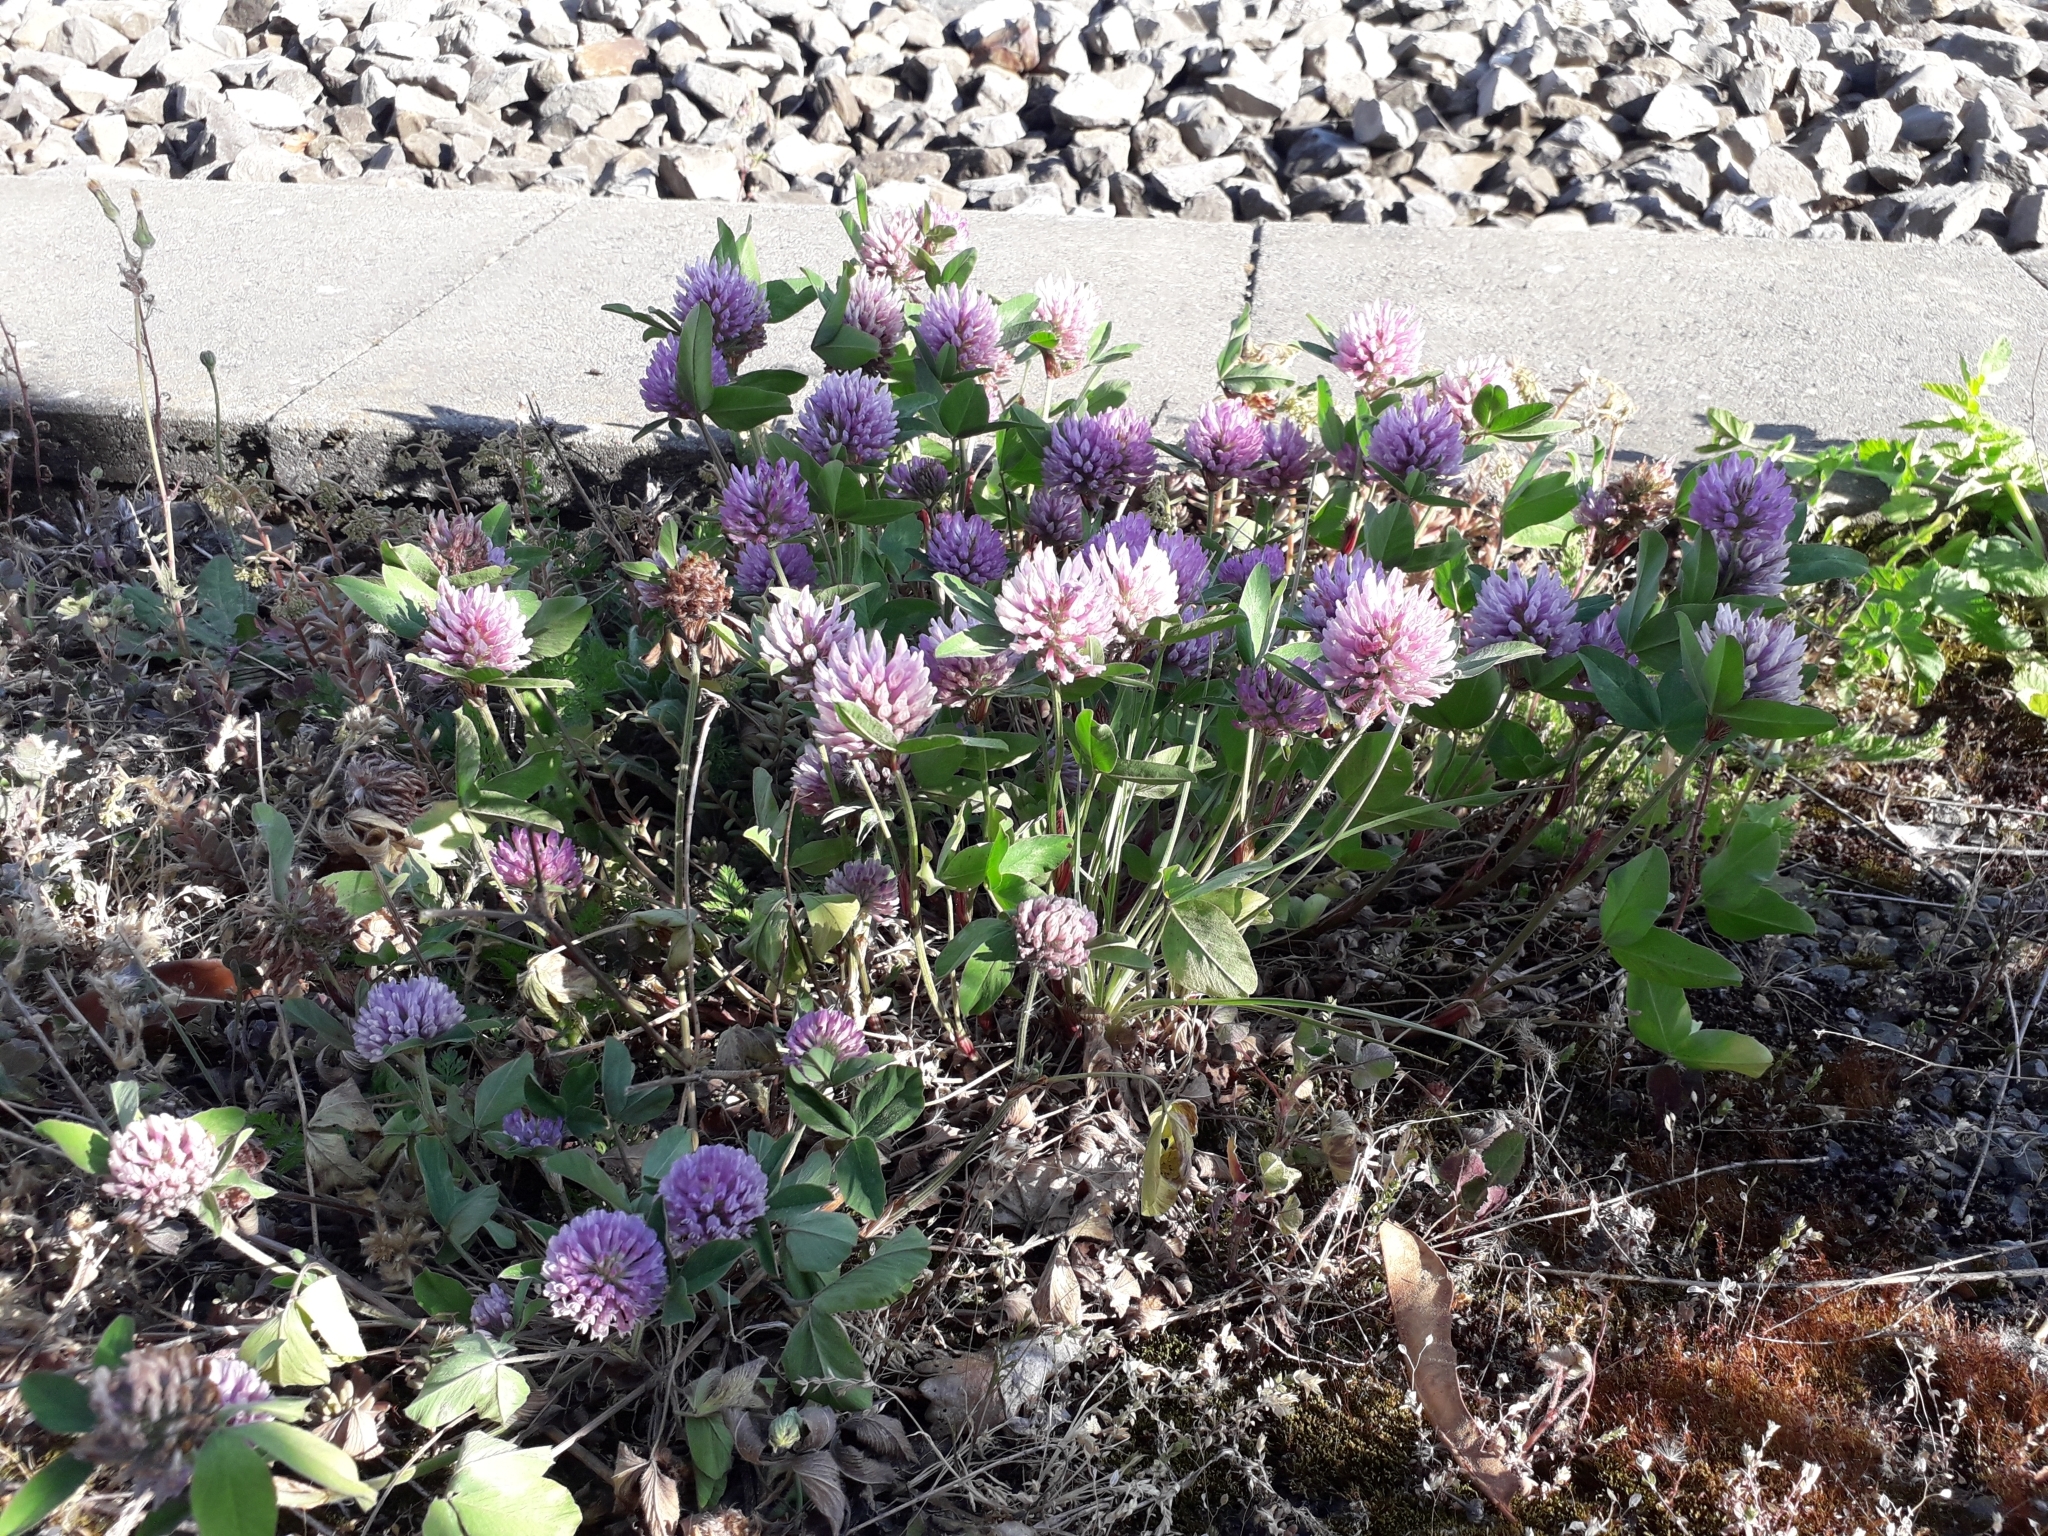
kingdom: Plantae
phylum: Tracheophyta
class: Magnoliopsida
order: Fabales
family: Fabaceae
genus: Trifolium
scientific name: Trifolium pratense
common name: Red clover
